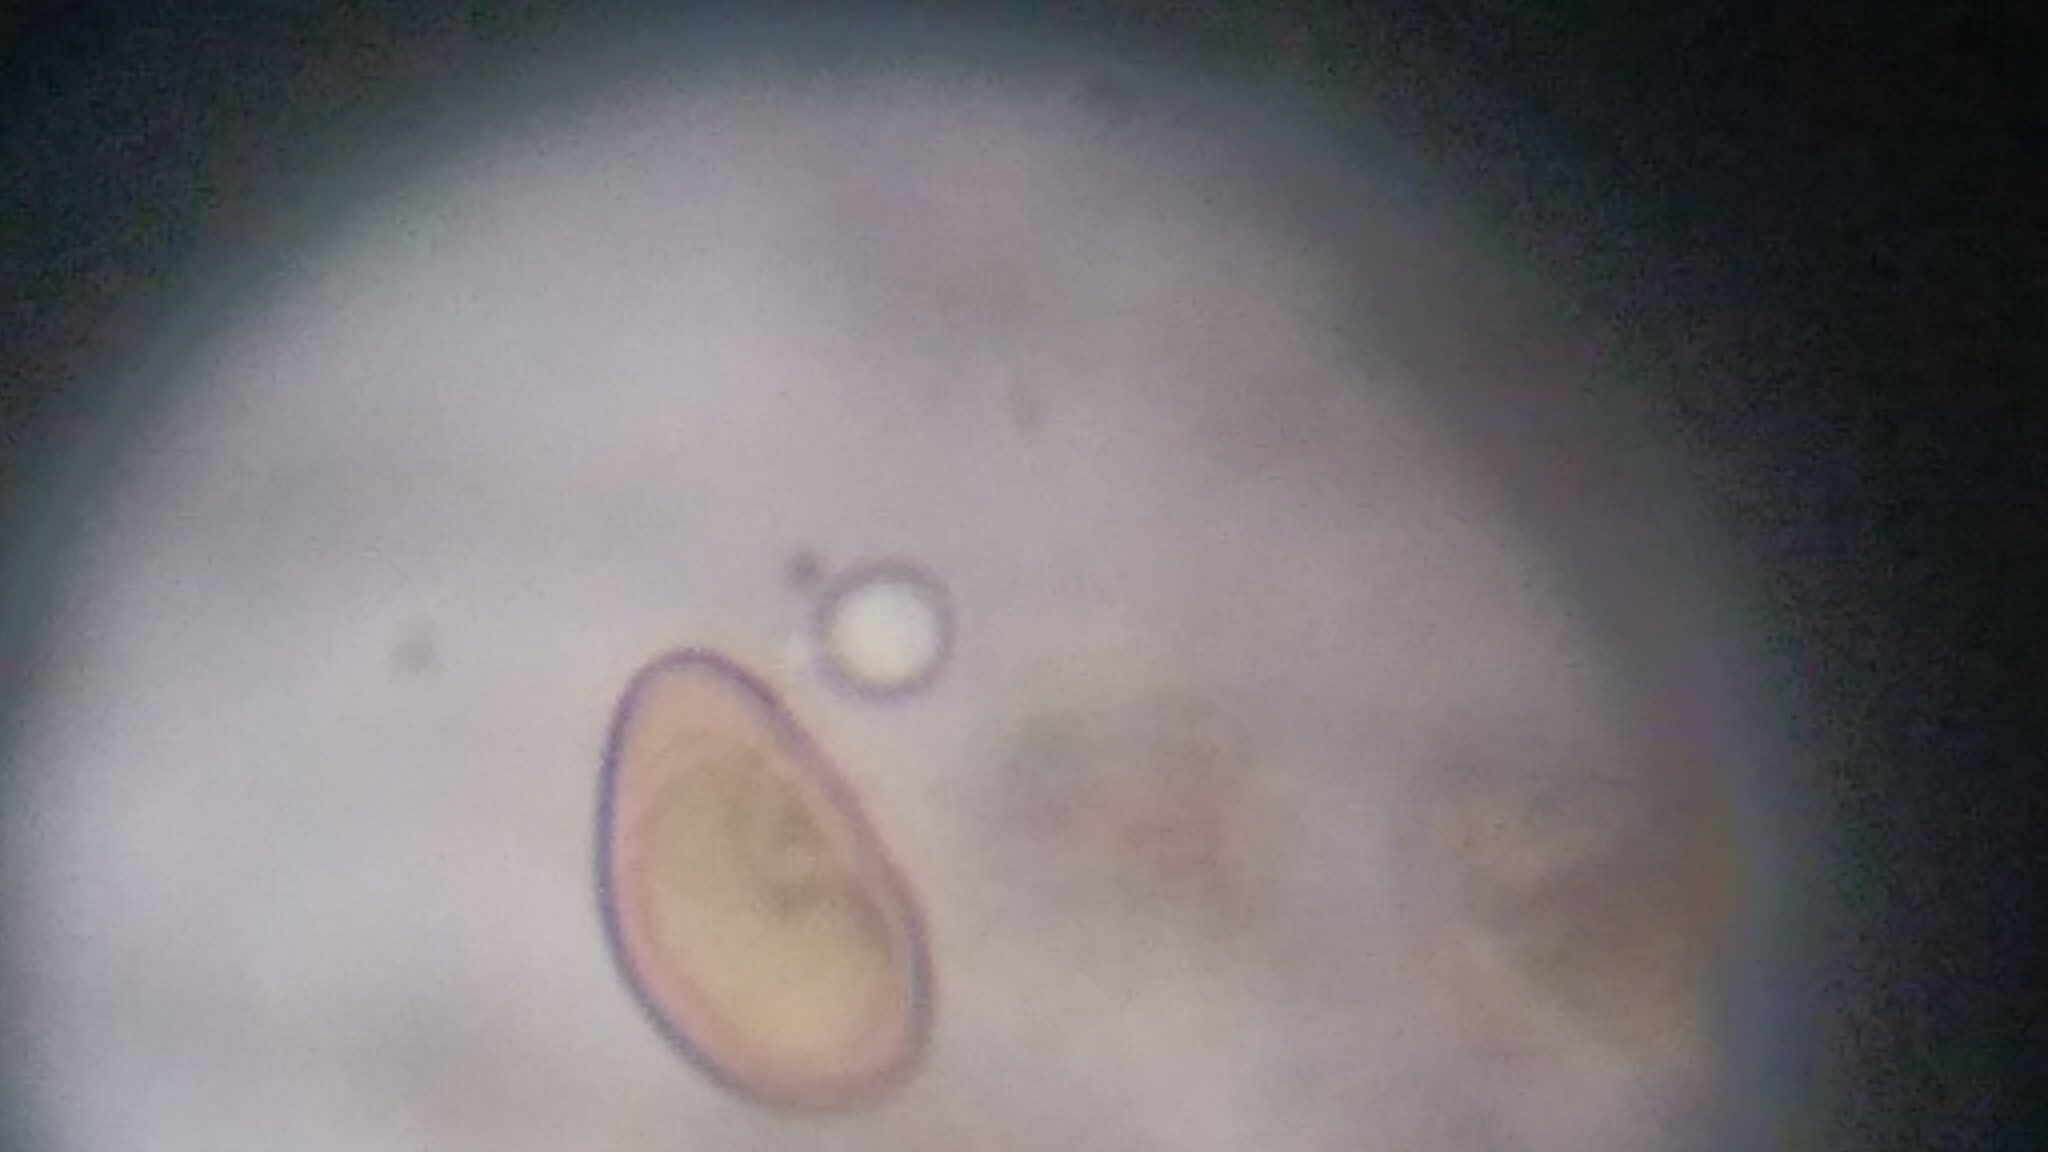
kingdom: Fungi
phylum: Basidiomycota
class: Agaricomycetes
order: Agaricales
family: Porotheleaceae
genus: Porotheleum
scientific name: Porotheleum fimbriatum
